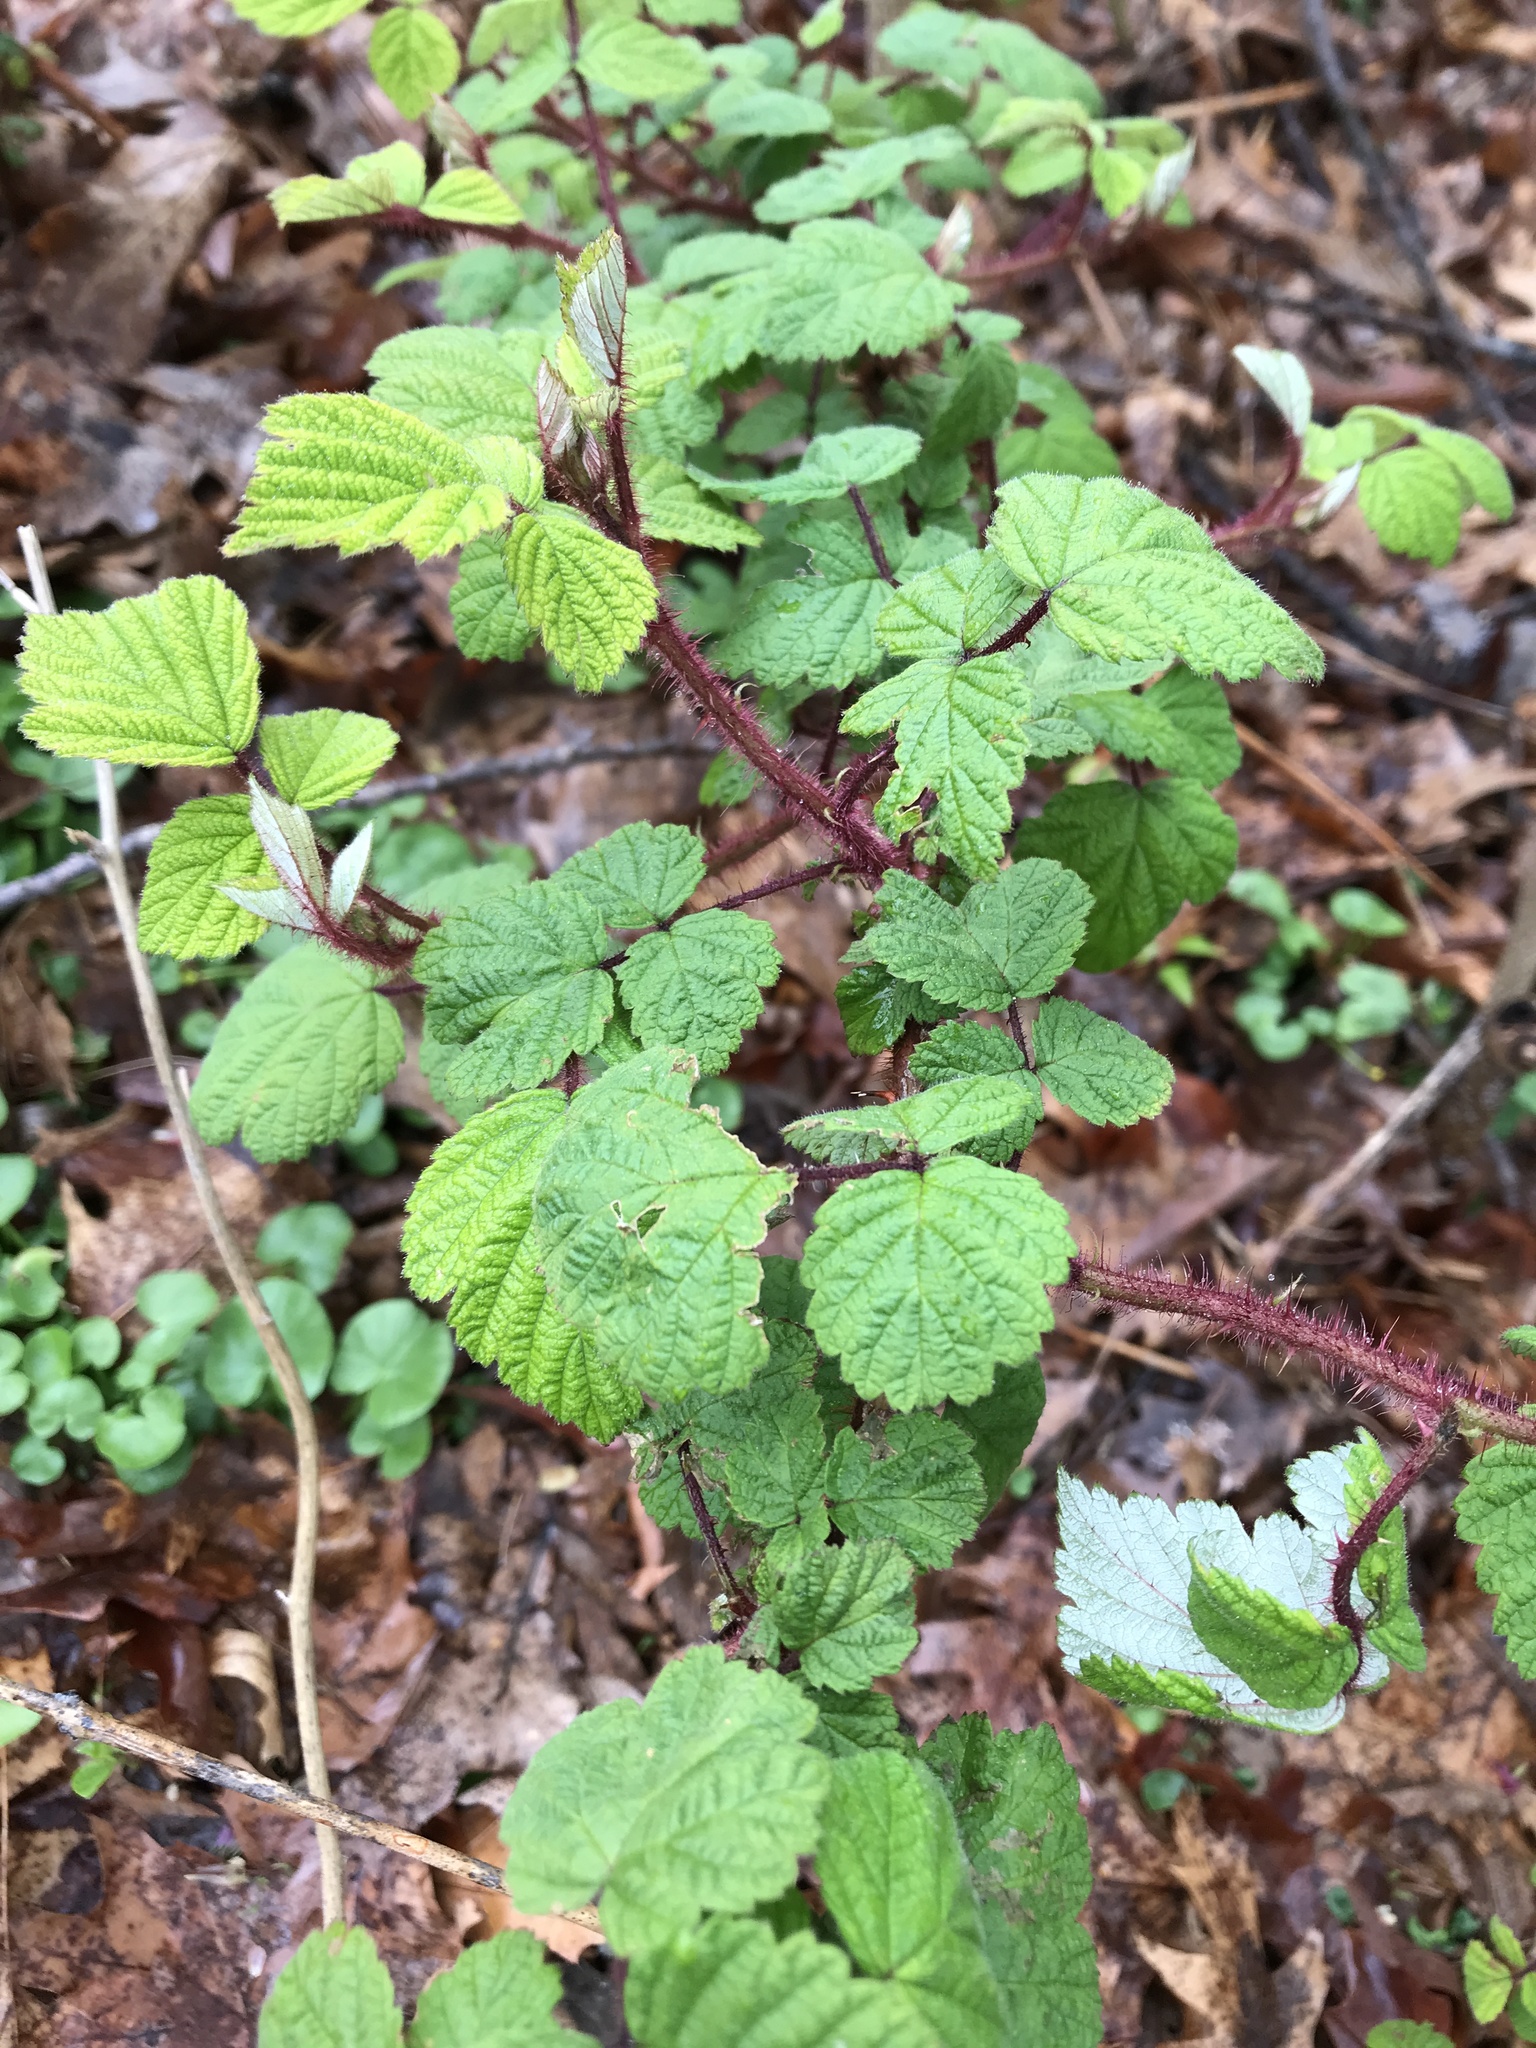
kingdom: Plantae
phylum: Tracheophyta
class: Magnoliopsida
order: Rosales
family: Rosaceae
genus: Rubus
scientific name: Rubus phoenicolasius
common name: Japanese wineberry
